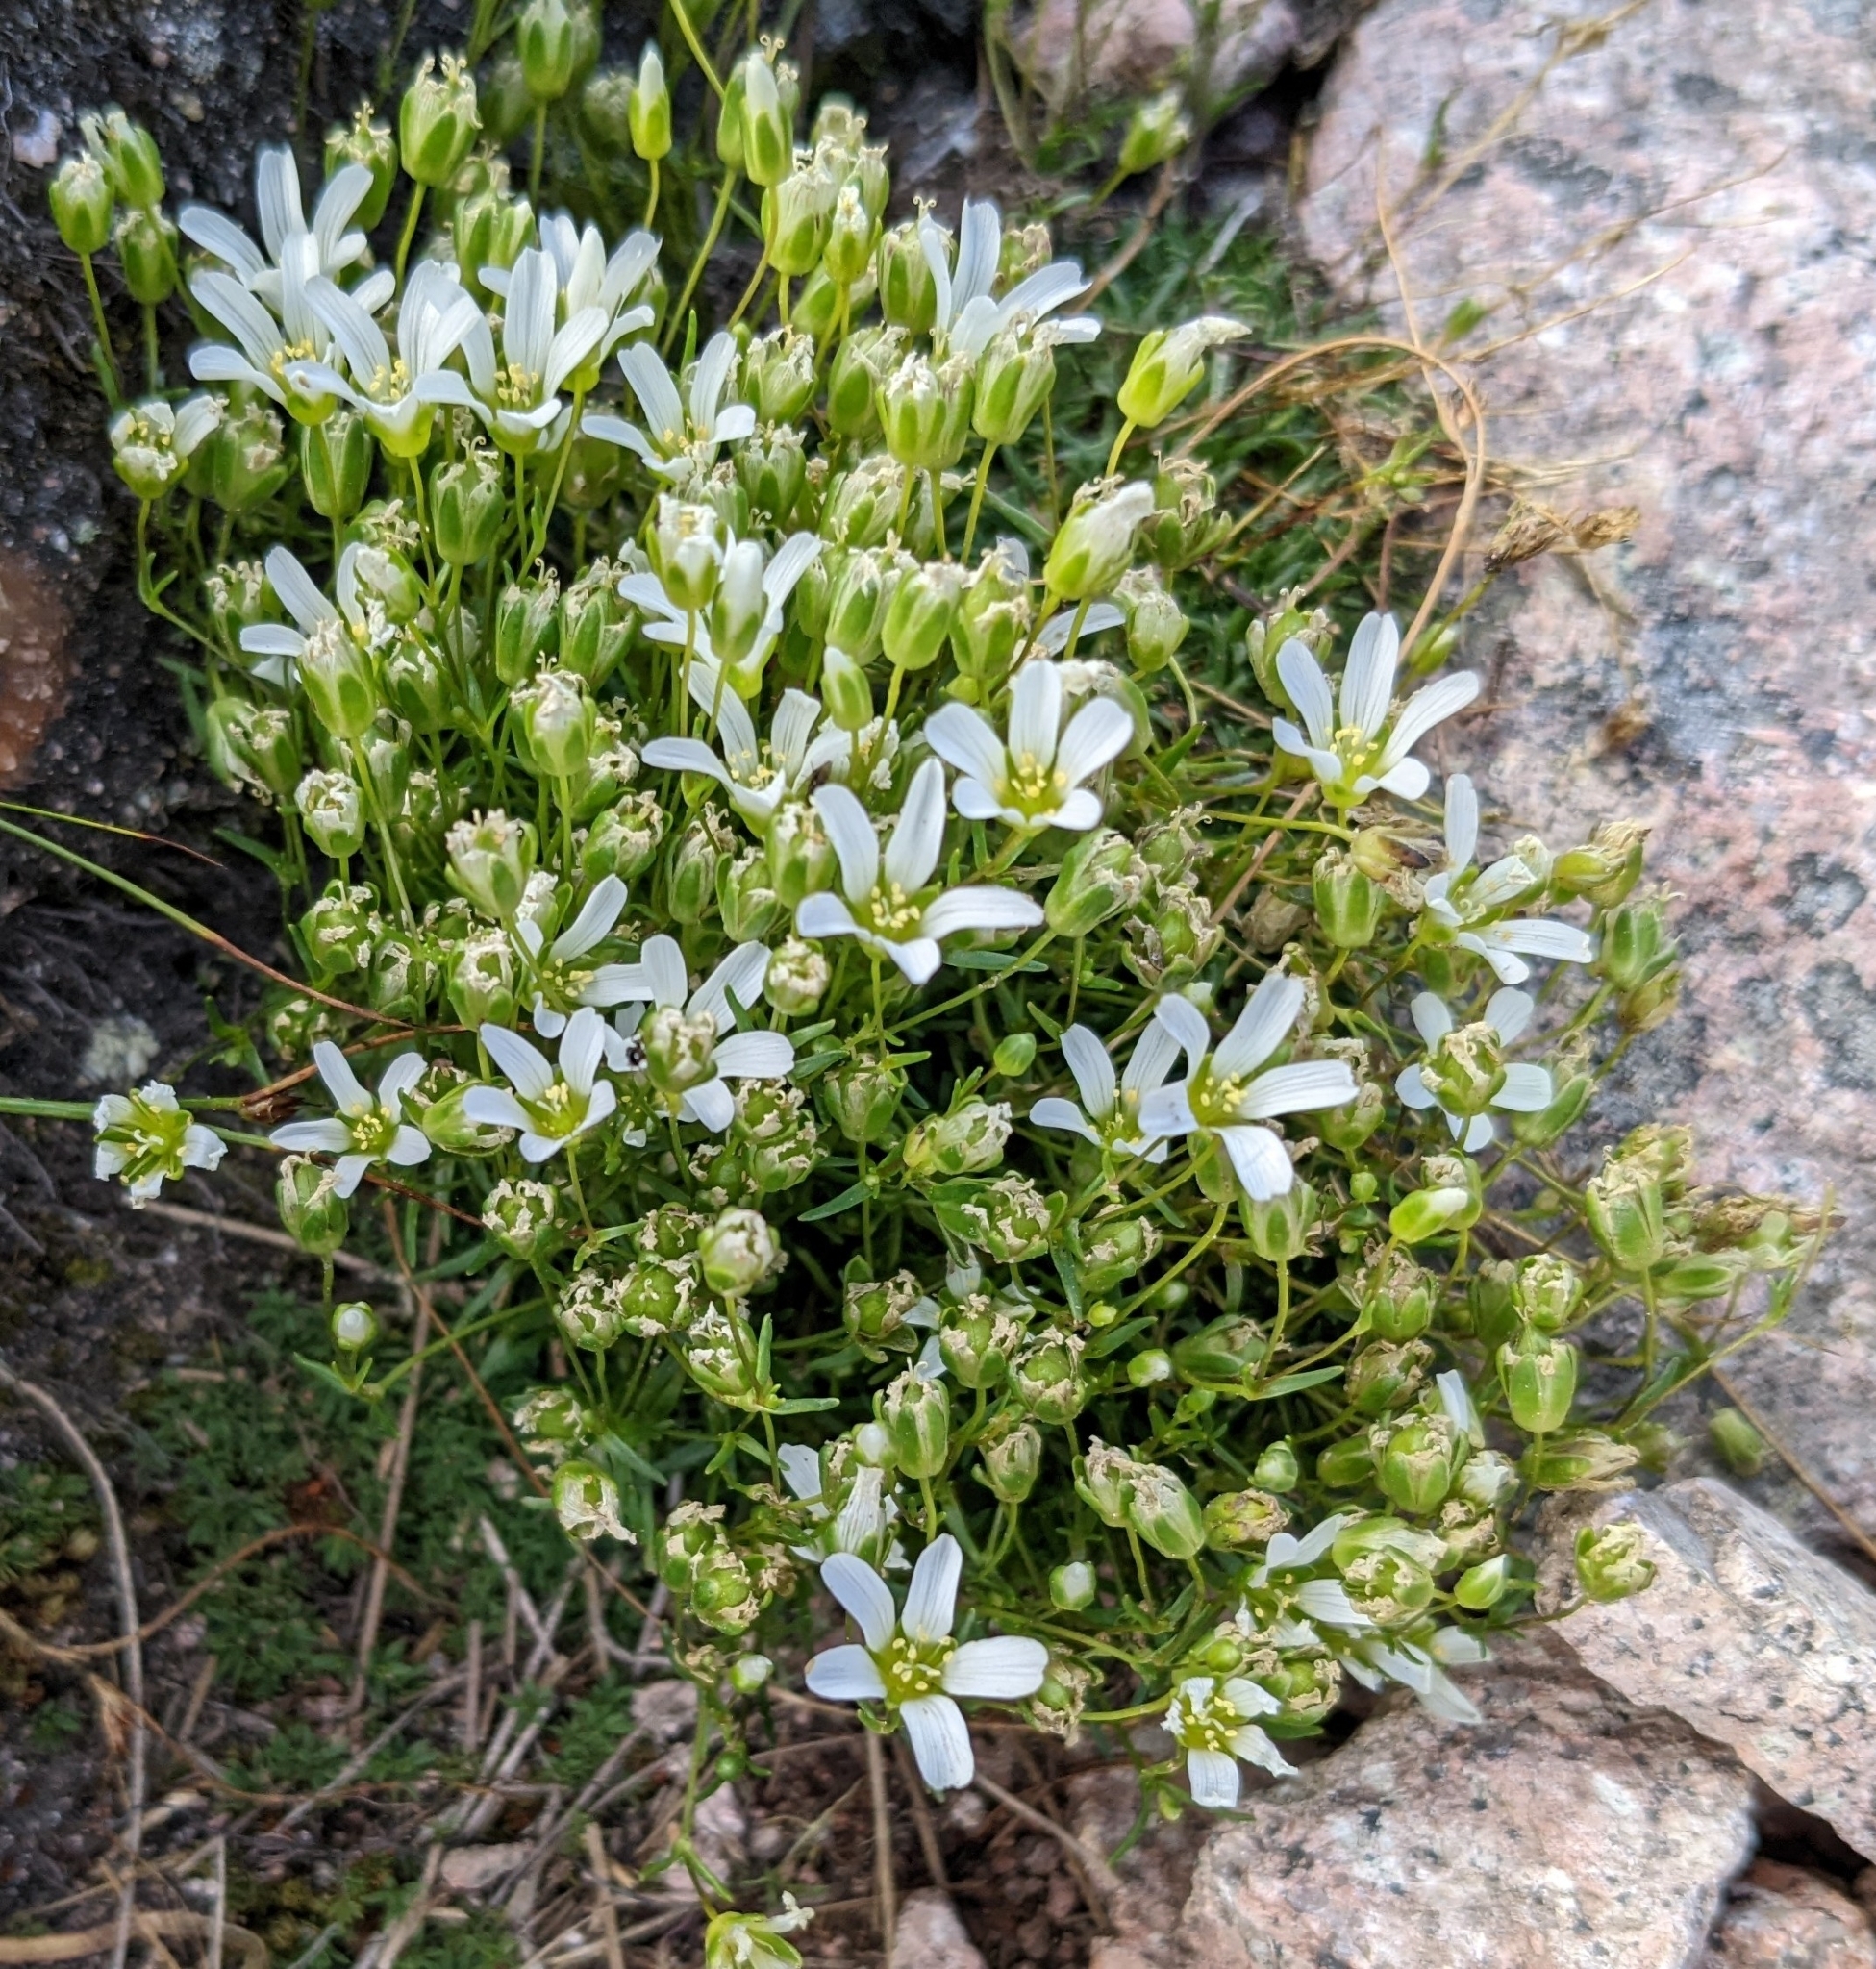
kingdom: Plantae
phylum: Tracheophyta
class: Magnoliopsida
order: Caryophyllales
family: Caryophyllaceae
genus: Geocarpon
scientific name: Geocarpon groenlandicum
